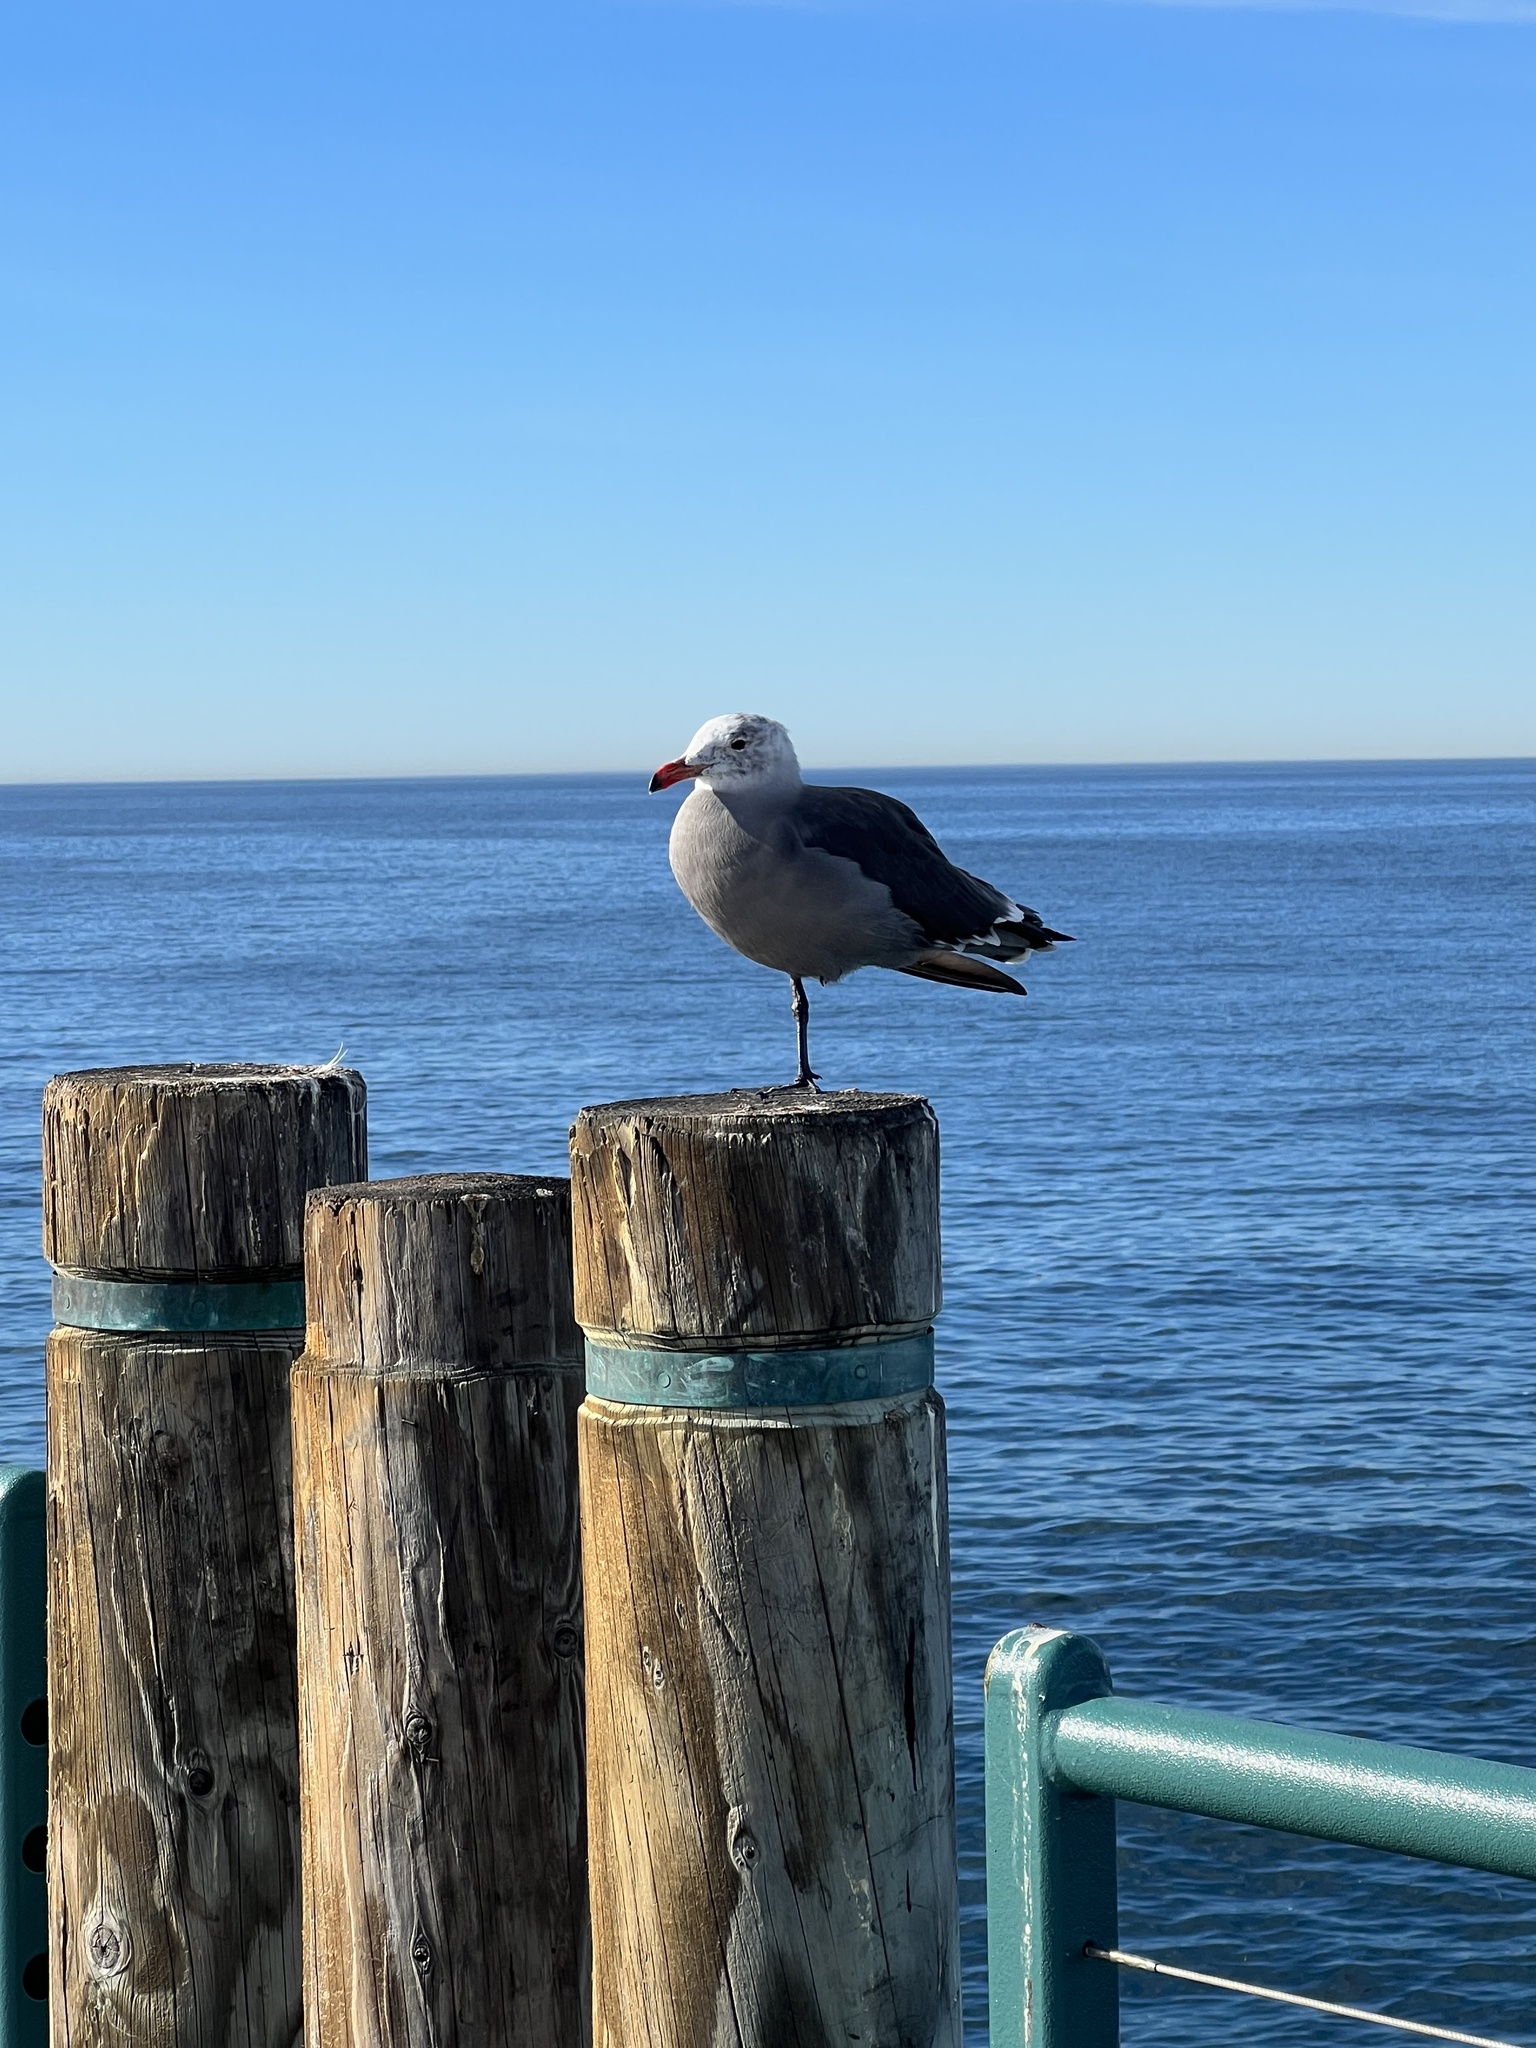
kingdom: Animalia
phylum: Chordata
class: Aves
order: Charadriiformes
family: Laridae
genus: Larus
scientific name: Larus heermanni
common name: Heermann's gull
